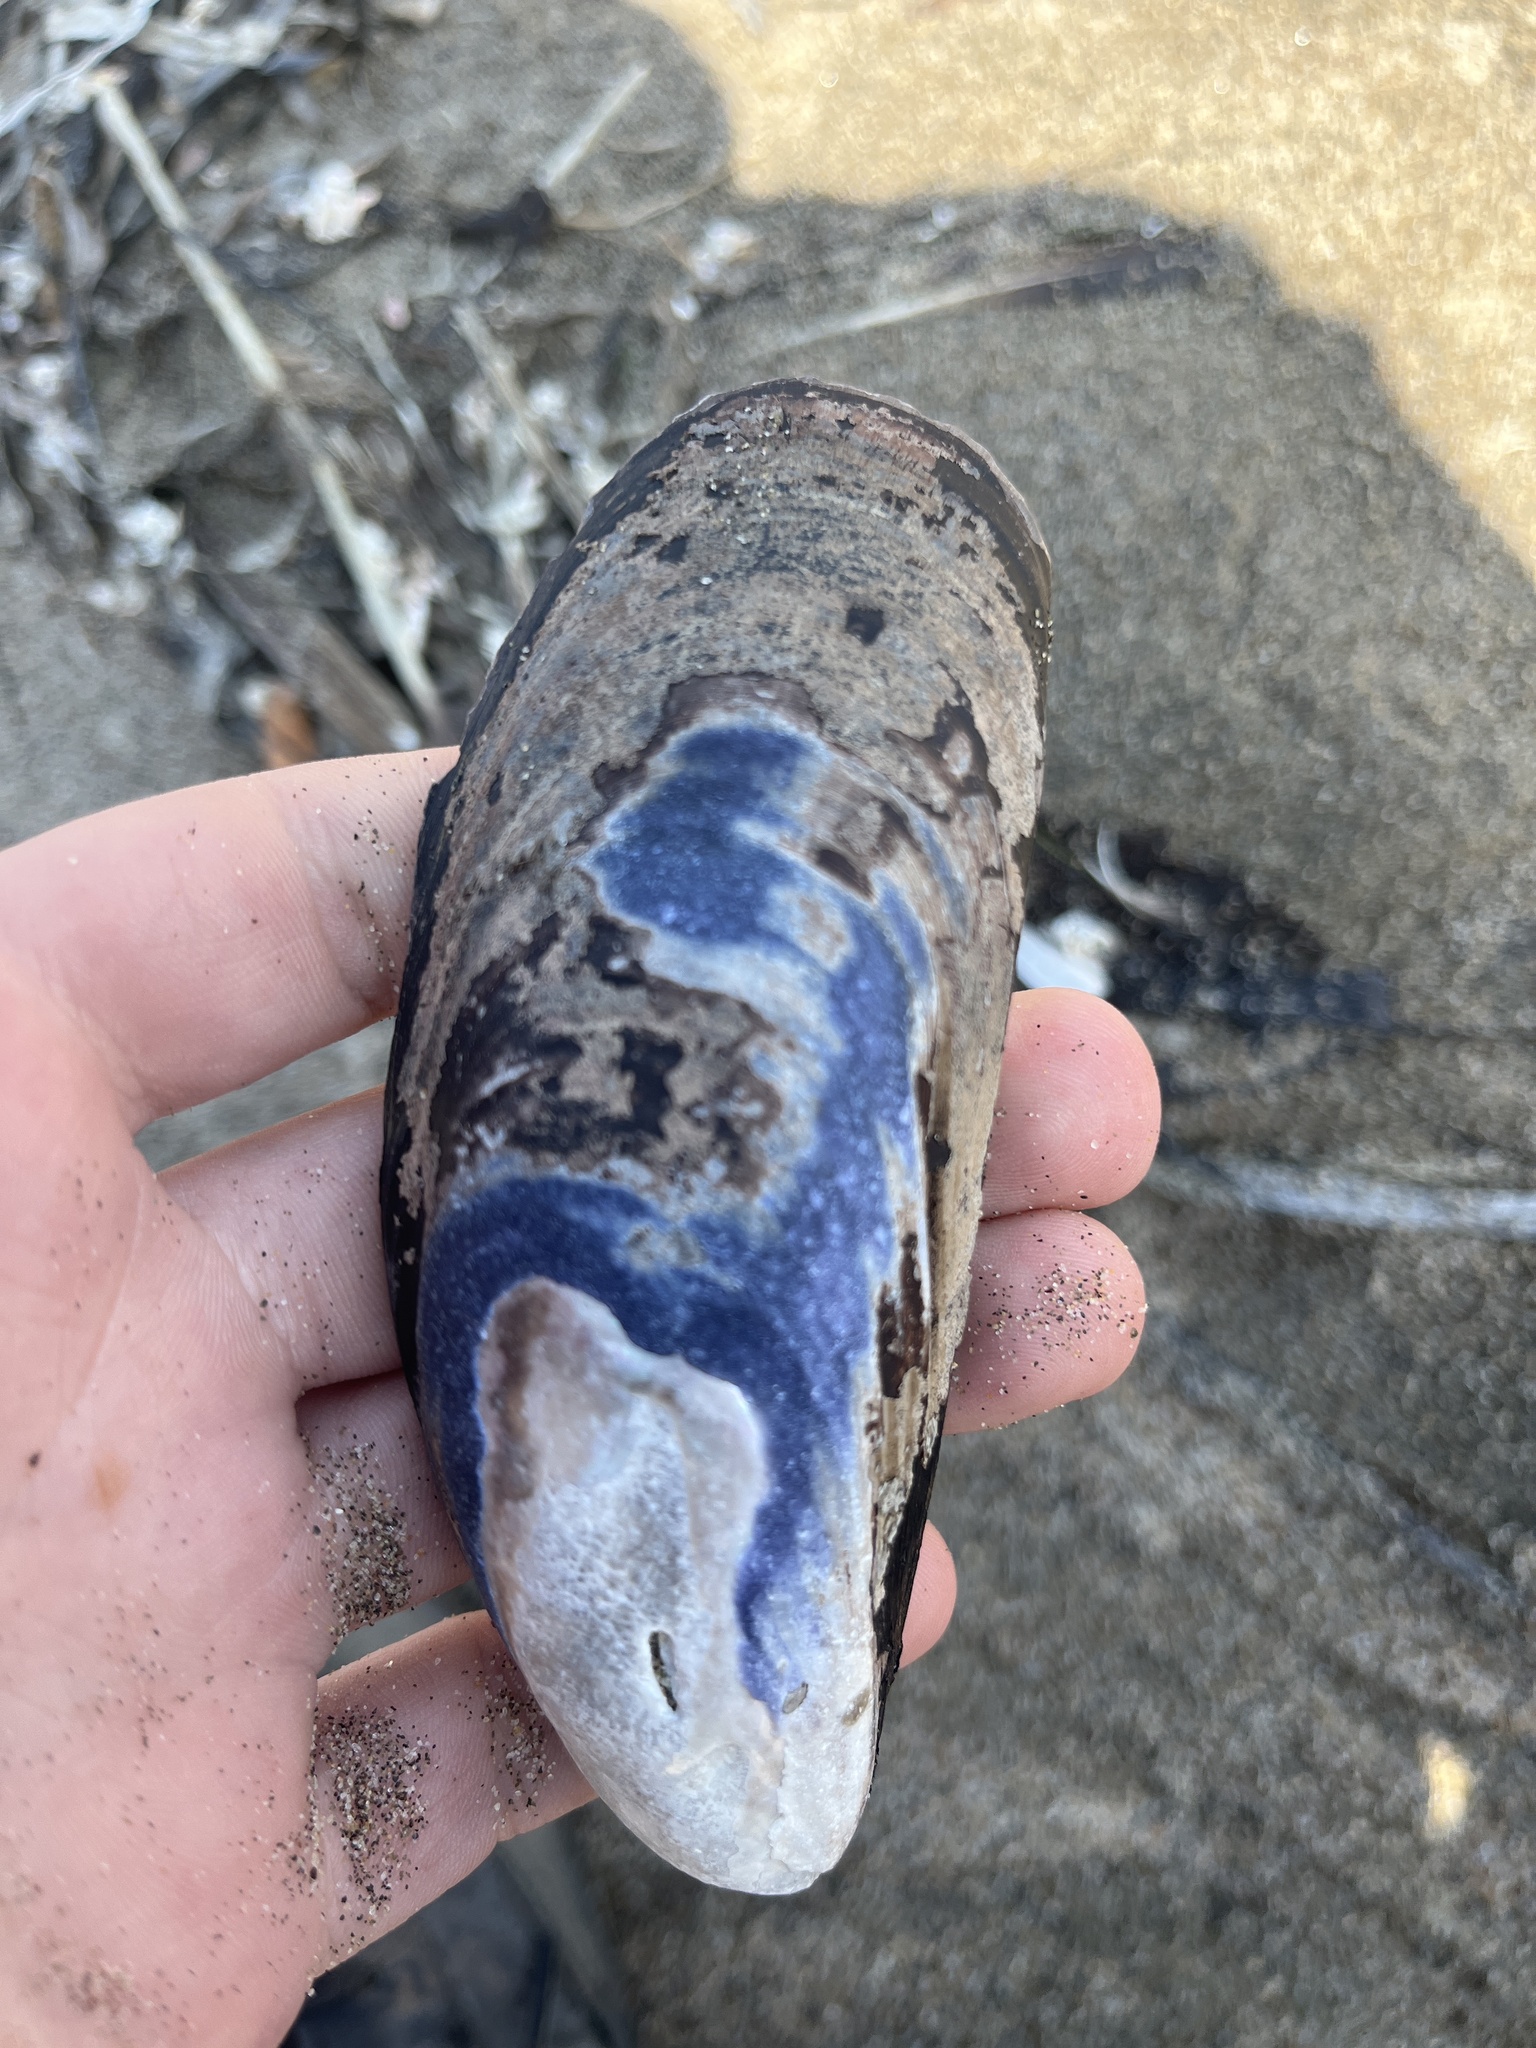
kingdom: Animalia
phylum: Mollusca
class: Bivalvia
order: Mytilida
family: Mytilidae
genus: Mytilus
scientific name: Mytilus californianus
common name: California mussel
